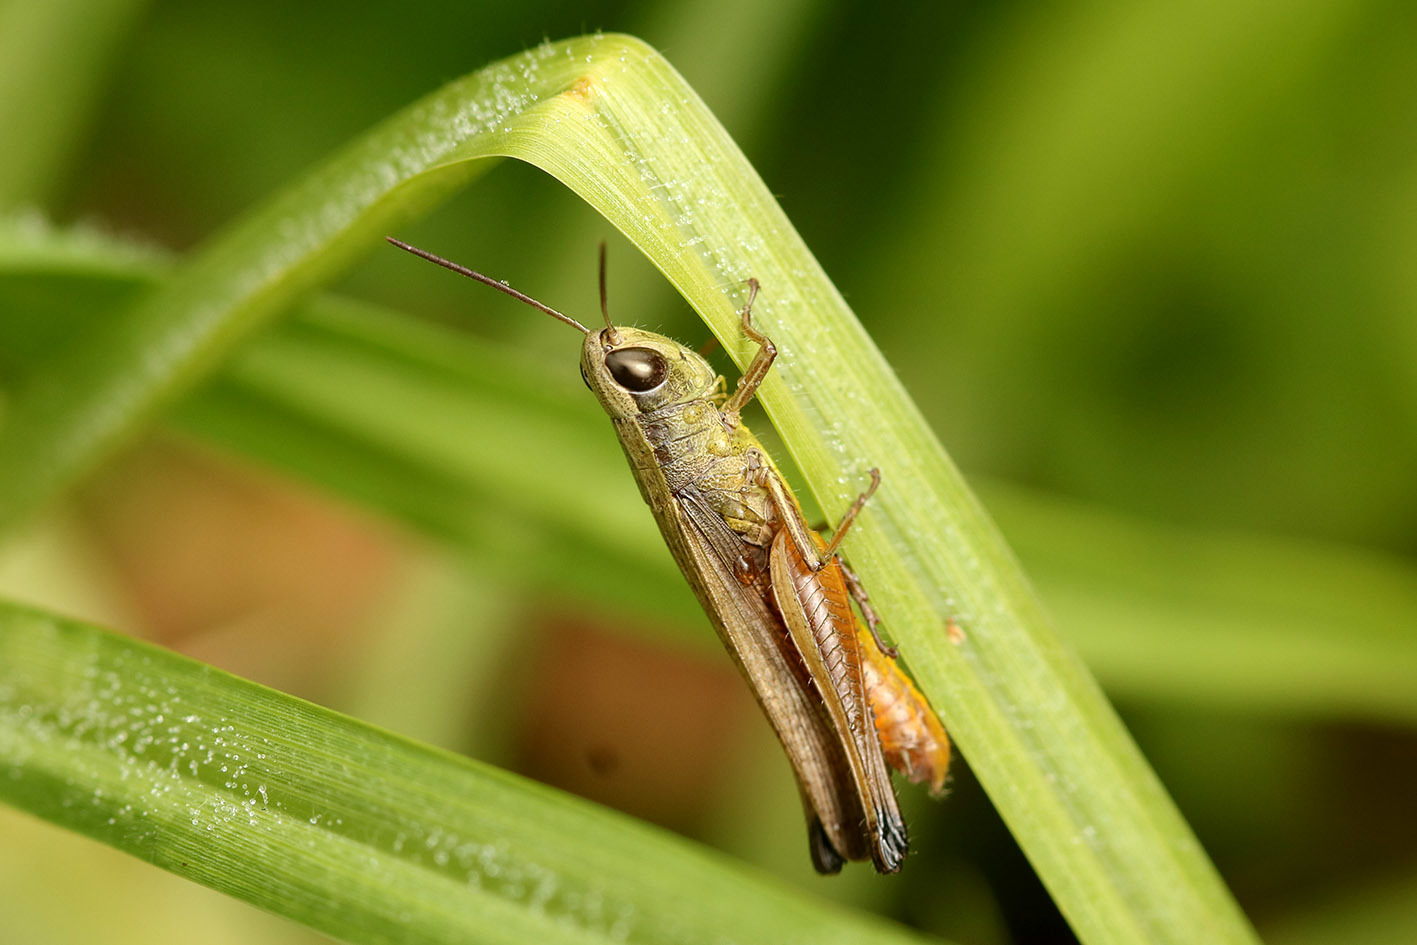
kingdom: Animalia
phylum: Arthropoda
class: Insecta
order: Orthoptera
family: Acrididae
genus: Amblytropidia
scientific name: Amblytropidia australis
